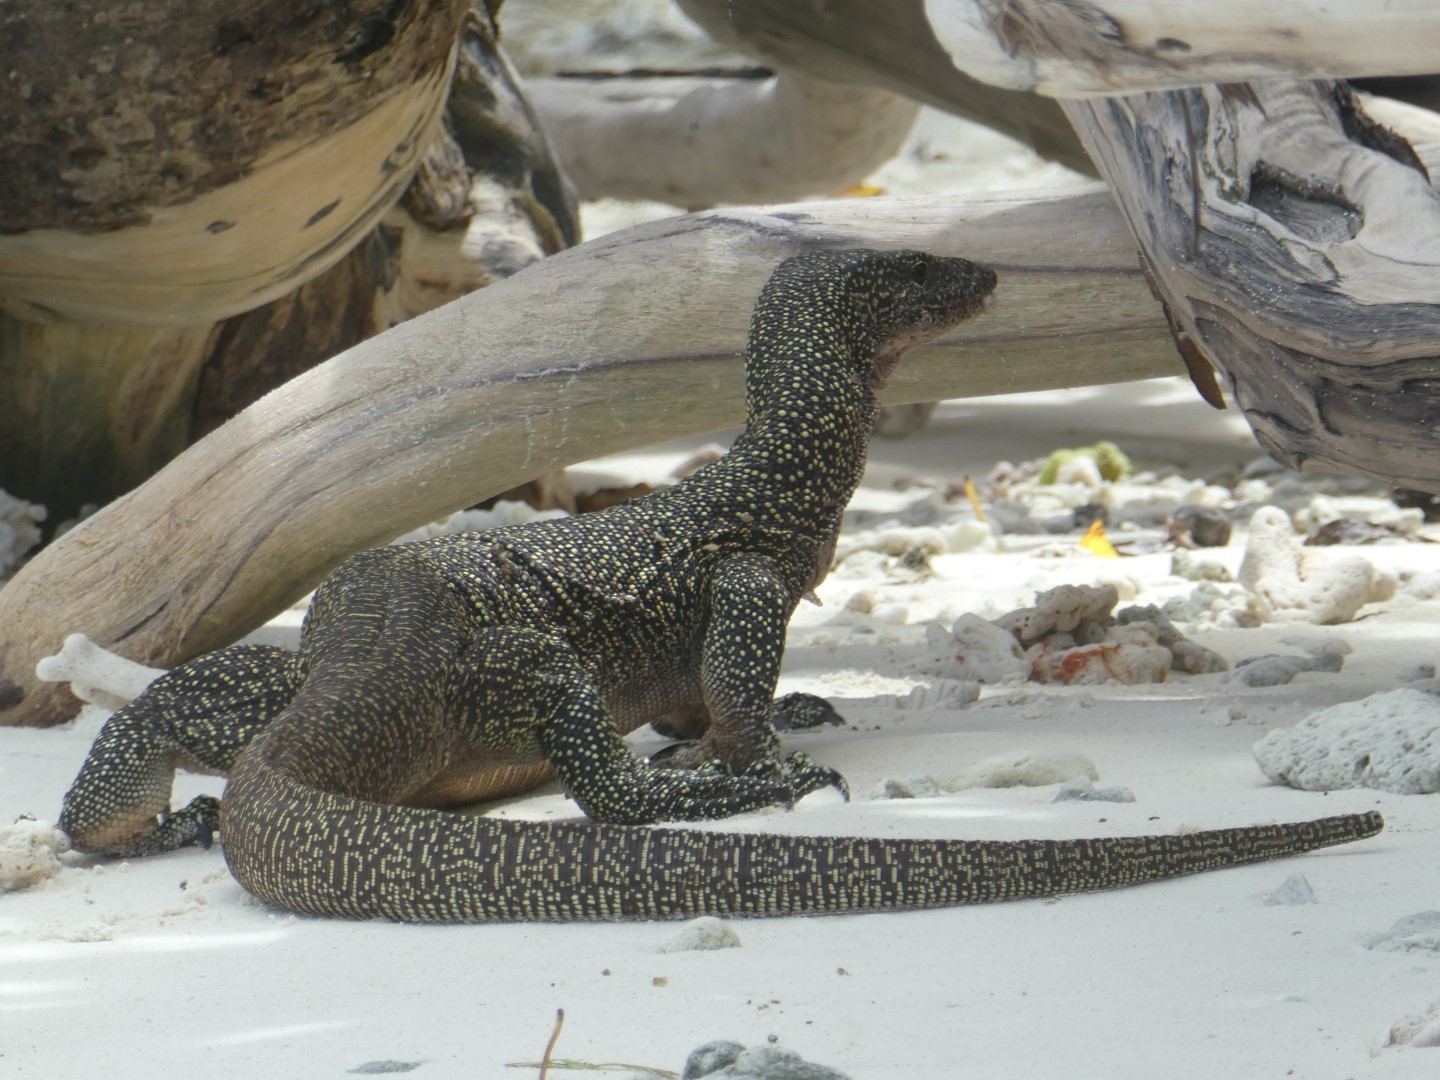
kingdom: Animalia
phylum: Chordata
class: Squamata
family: Varanidae
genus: Varanus
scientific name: Varanus indicus
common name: Mangrove monitor
